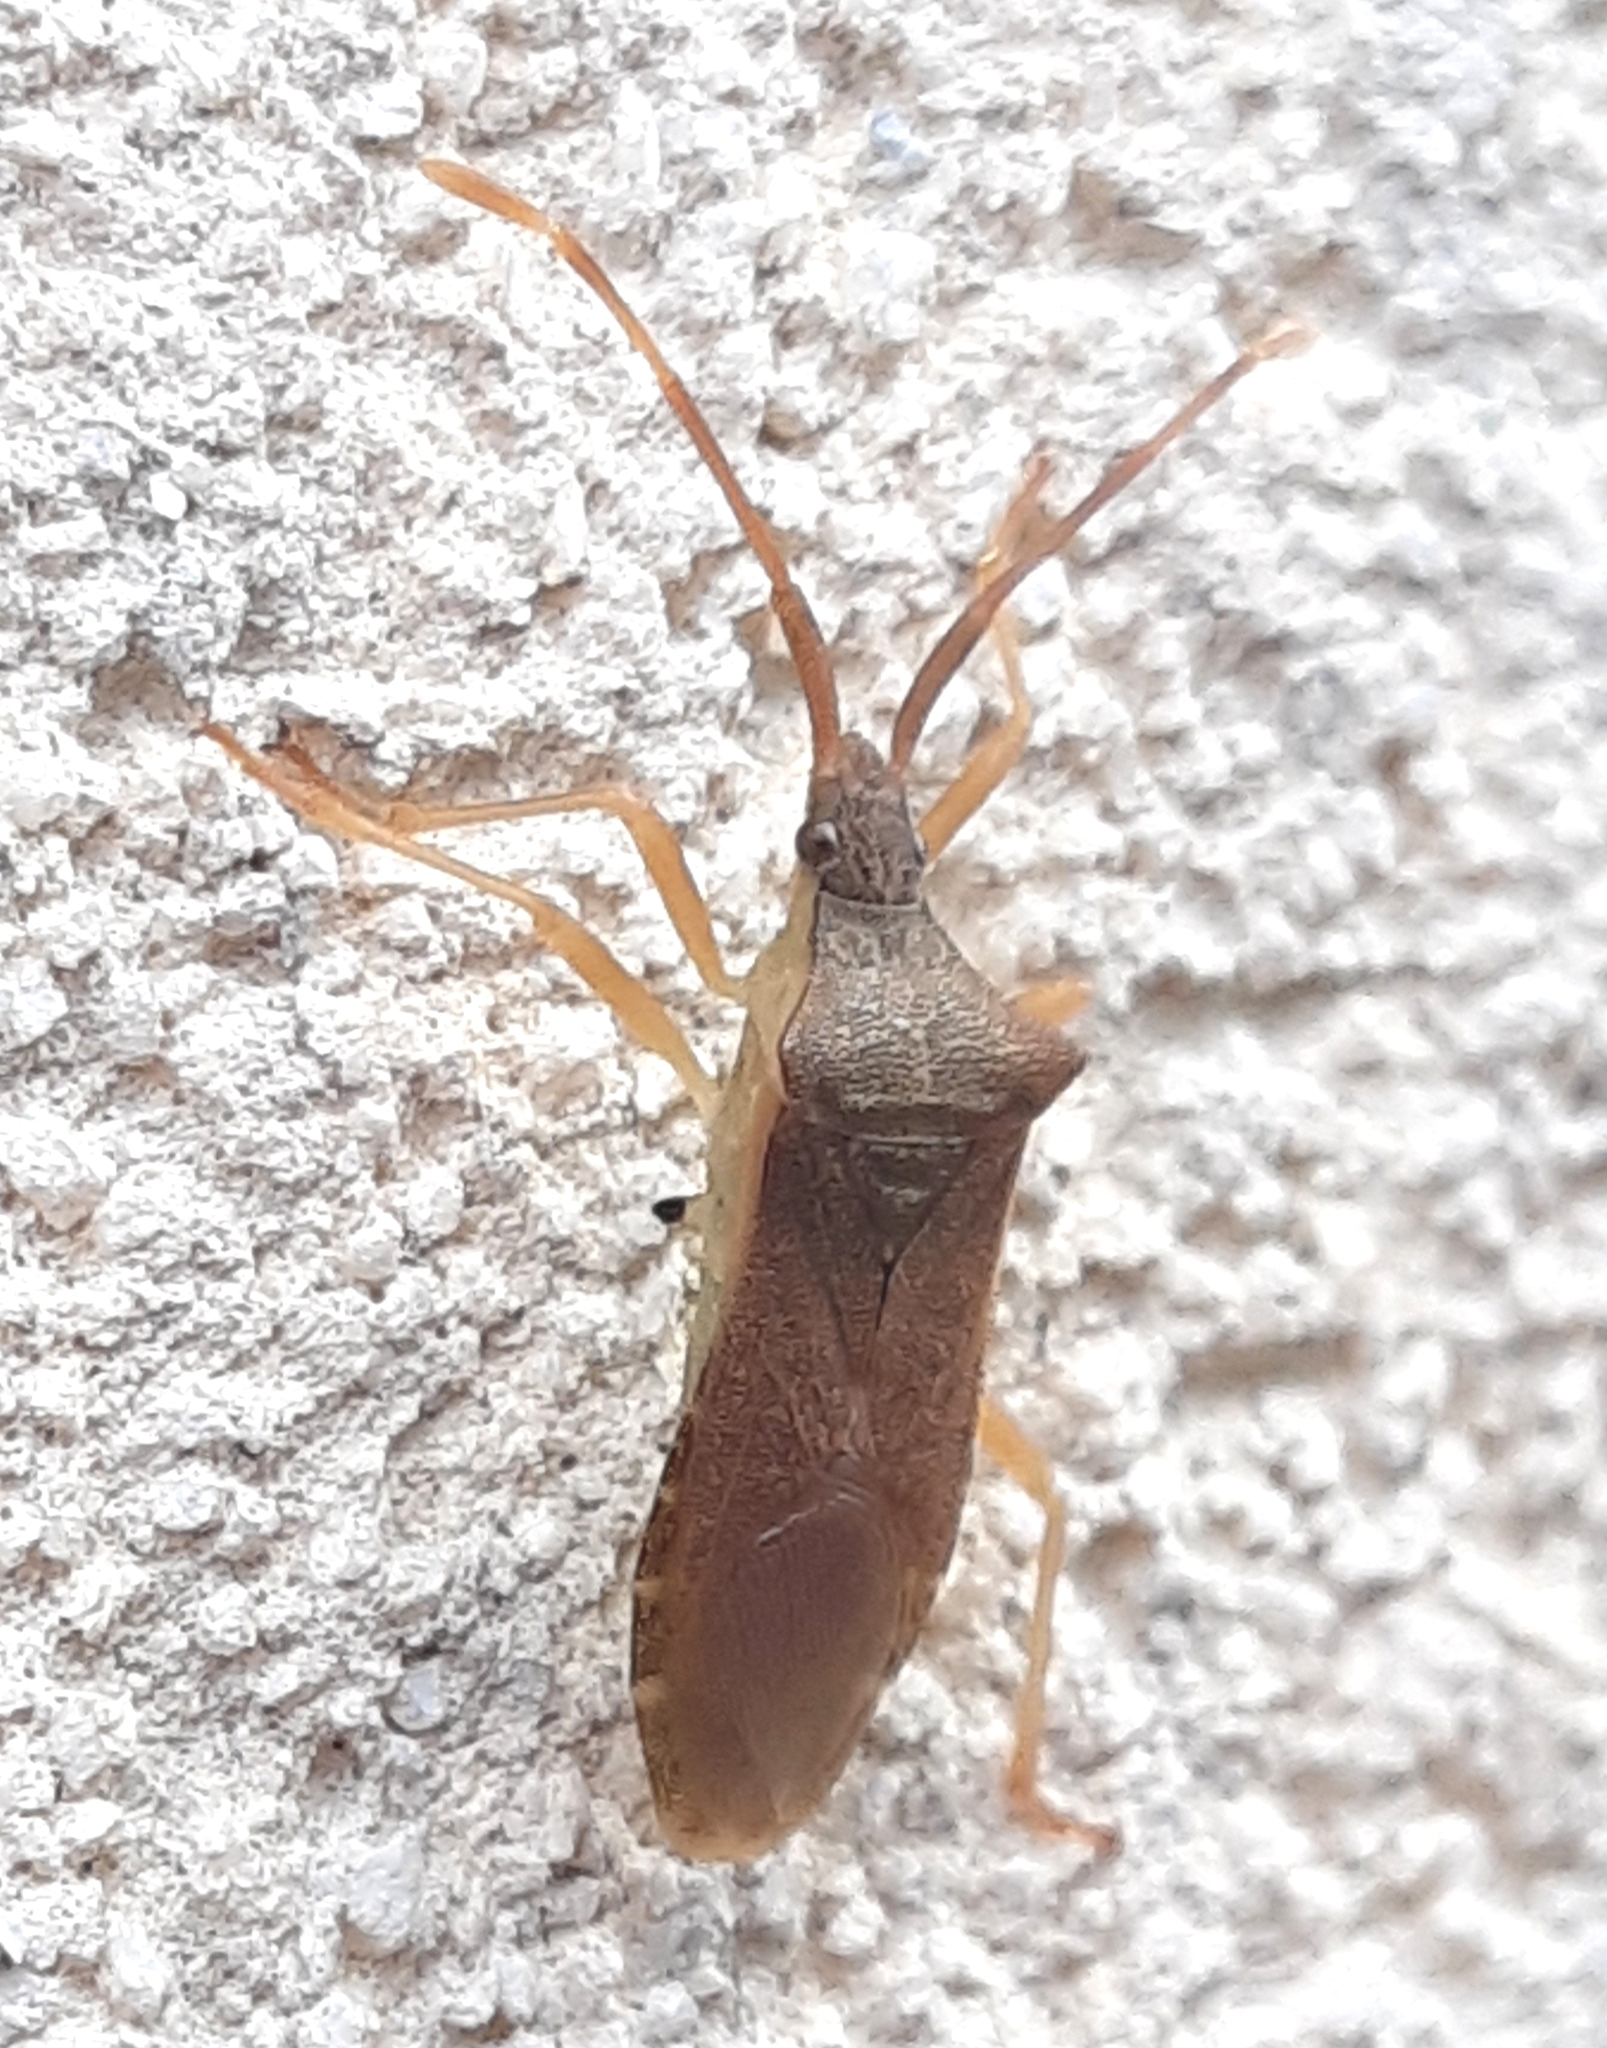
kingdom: Animalia
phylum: Arthropoda
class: Insecta
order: Hemiptera
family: Coreidae
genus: Gonocerus
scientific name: Gonocerus acuteangulatus
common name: Box bug
